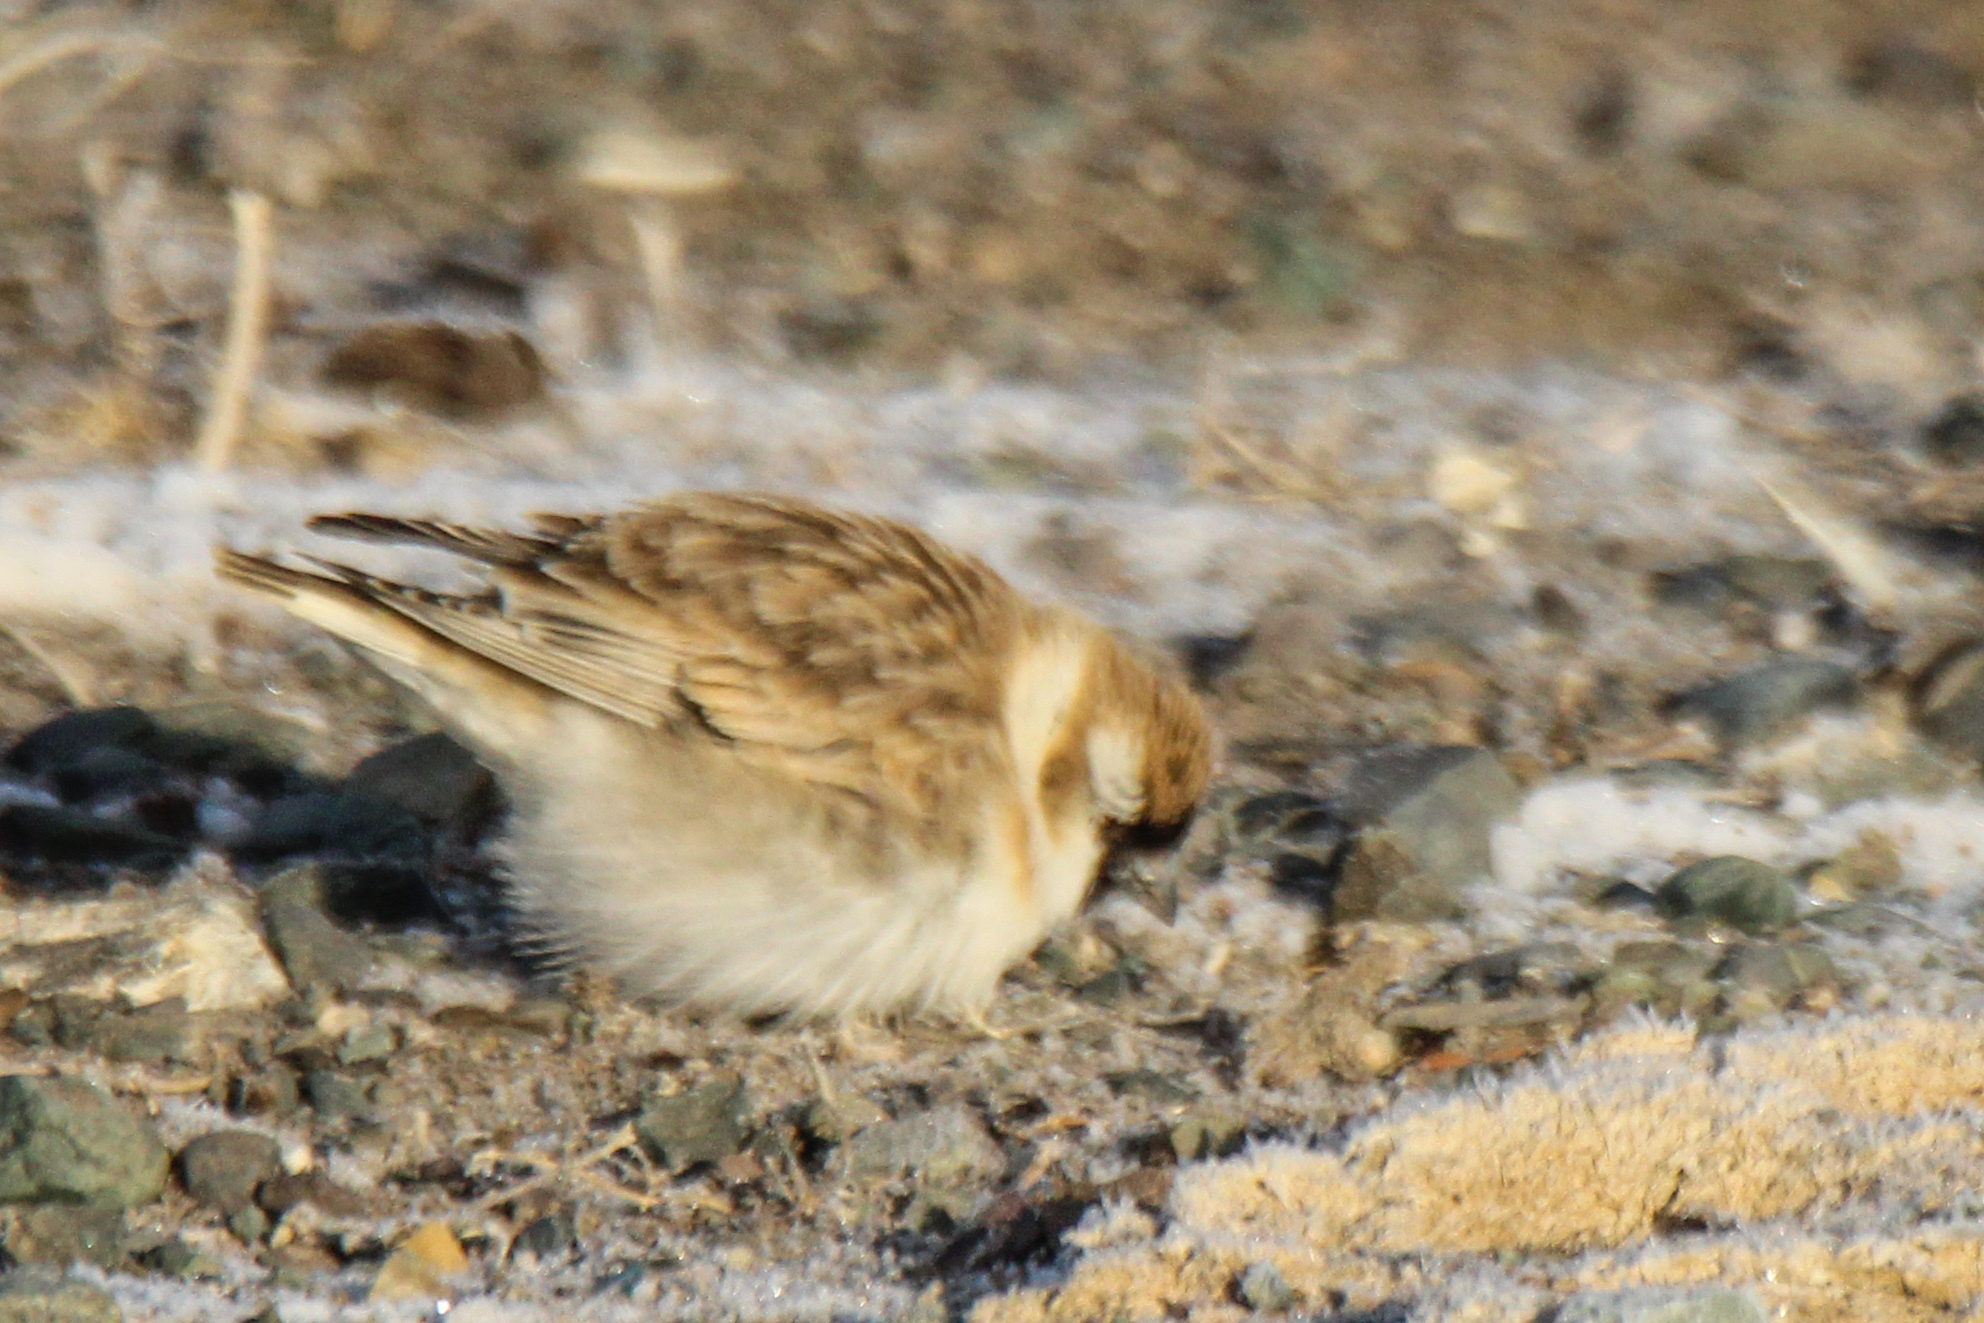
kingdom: Animalia
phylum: Chordata
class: Aves
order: Passeriformes
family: Passeridae
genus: Pyrgilauda
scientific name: Pyrgilauda davidiana
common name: Pere david's snowfinch
